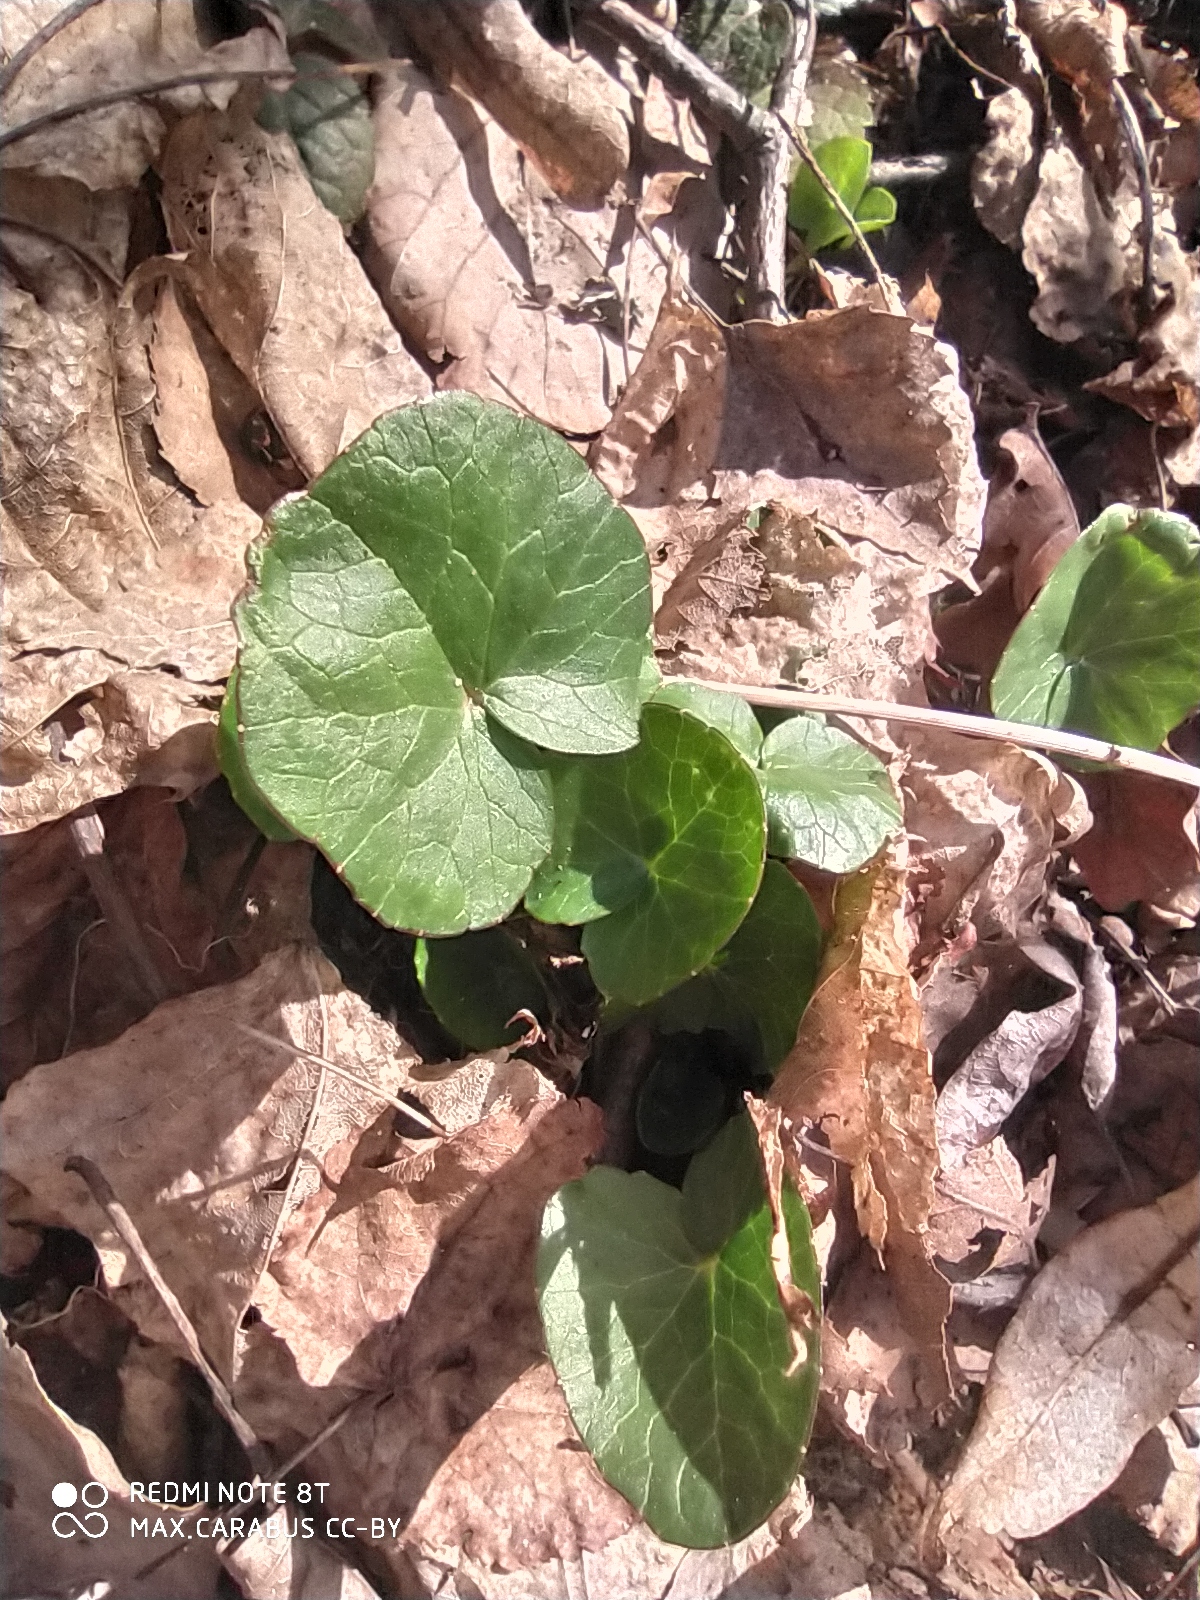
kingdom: Plantae
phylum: Tracheophyta
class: Magnoliopsida
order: Ranunculales
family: Ranunculaceae
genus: Ficaria
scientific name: Ficaria verna
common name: Lesser celandine
